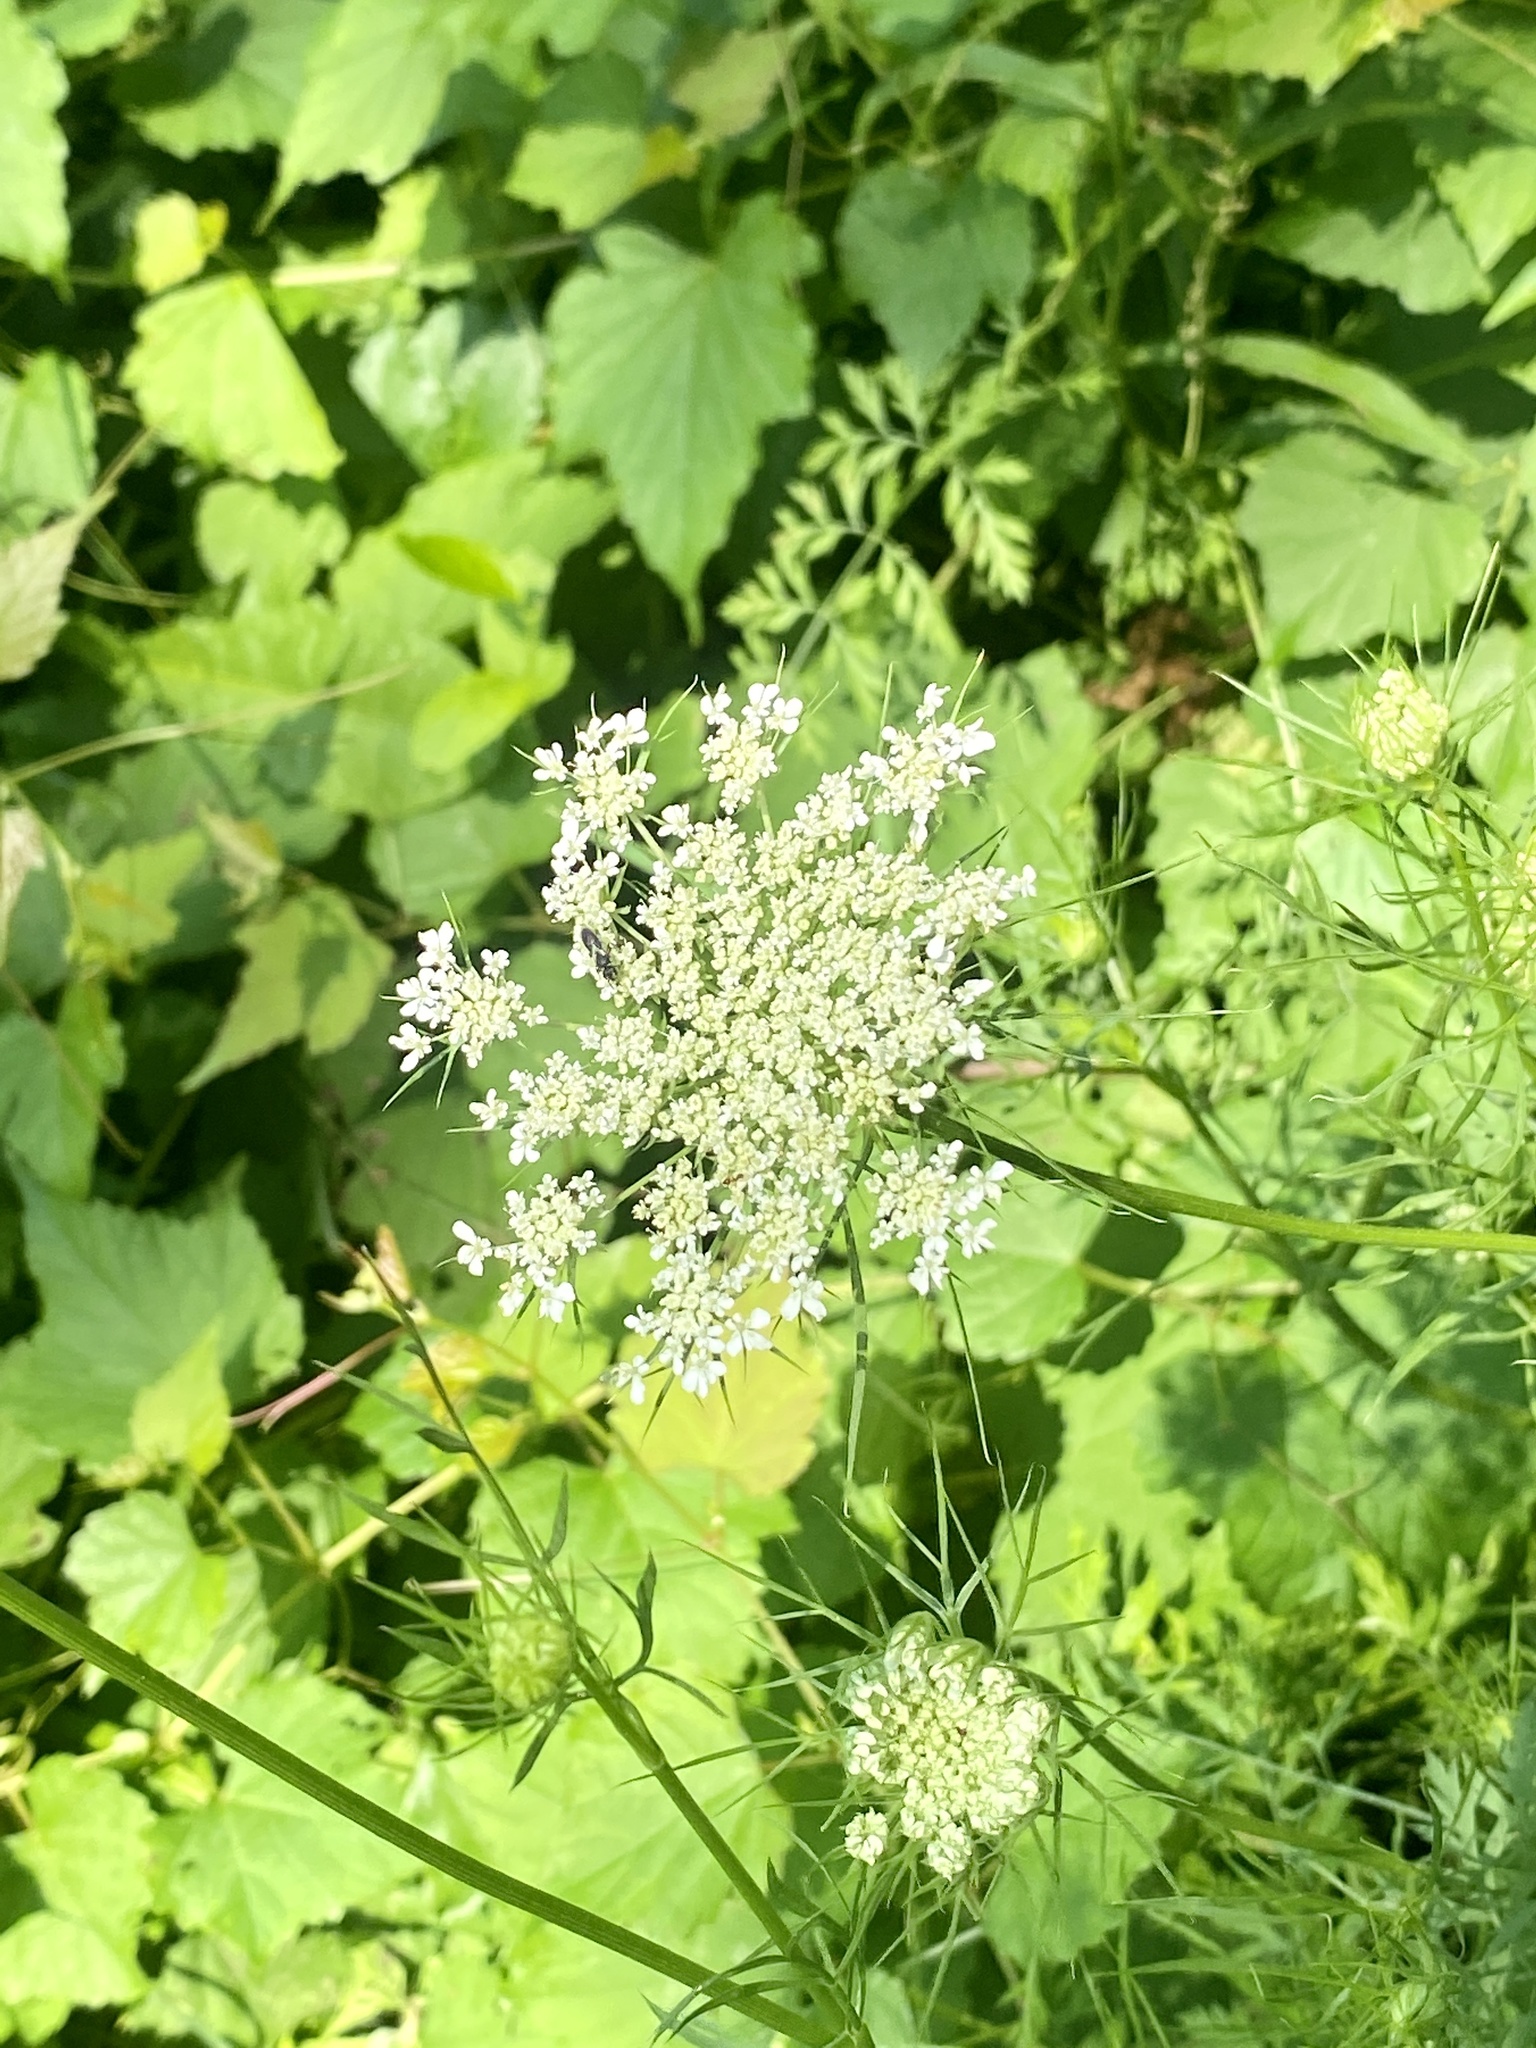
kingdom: Plantae
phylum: Tracheophyta
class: Magnoliopsida
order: Apiales
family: Apiaceae
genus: Daucus
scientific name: Daucus carota
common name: Wild carrot
